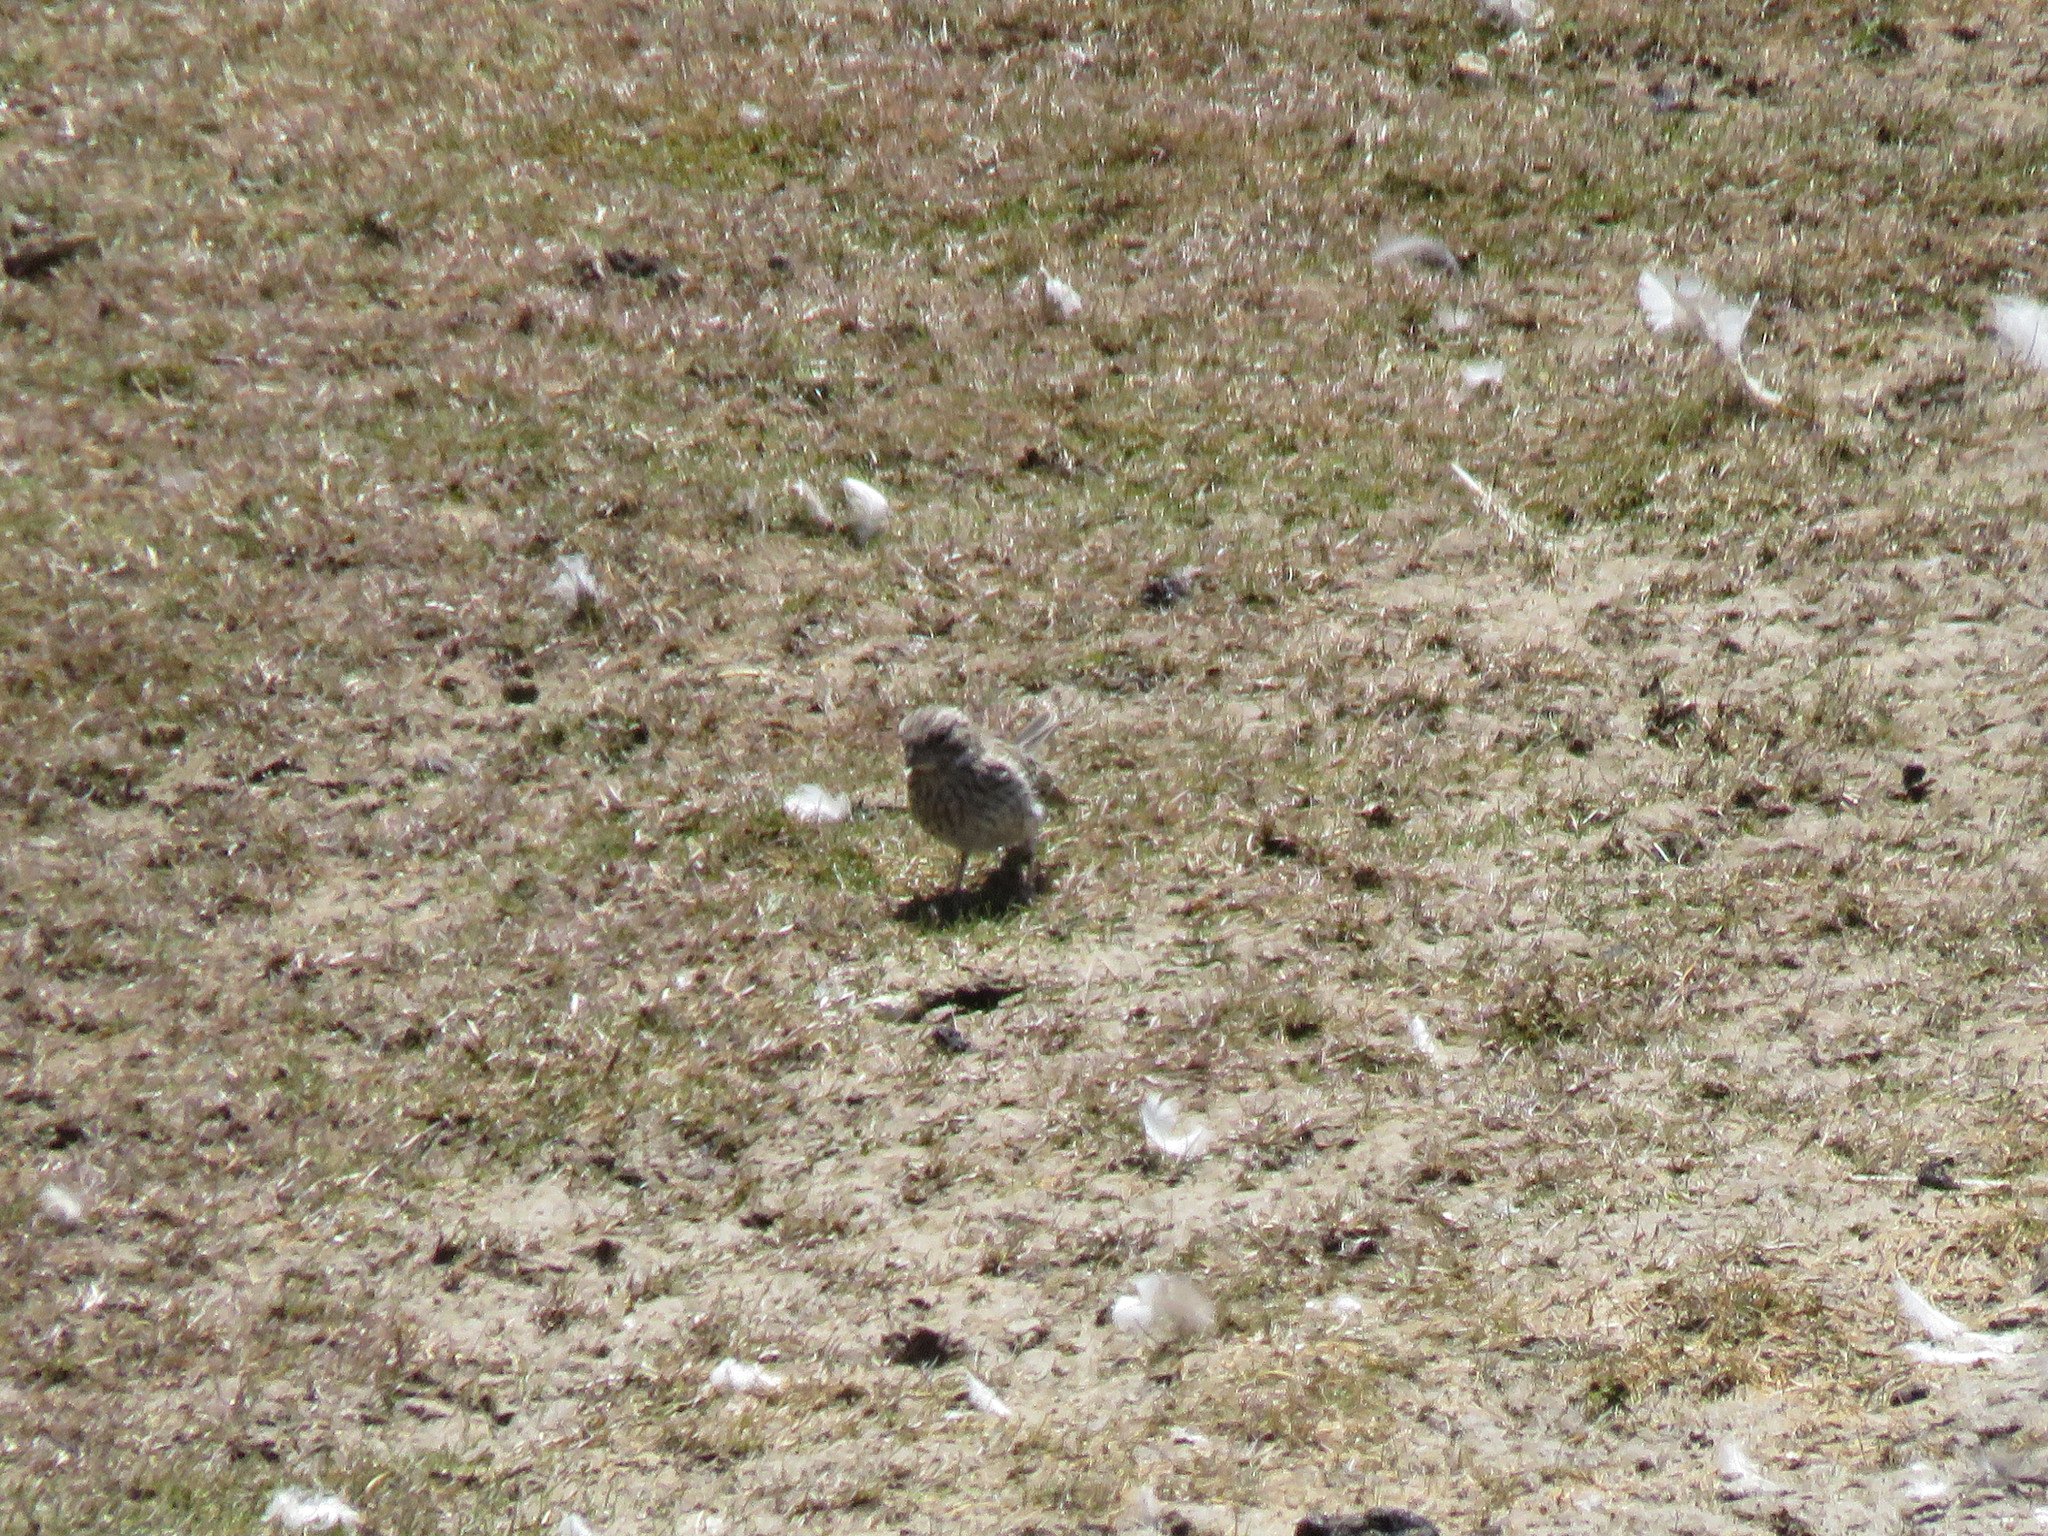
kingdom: Animalia
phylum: Chordata
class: Aves
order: Passeriformes
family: Passerellidae
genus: Zonotrichia
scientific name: Zonotrichia capensis
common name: Rufous-collared sparrow
